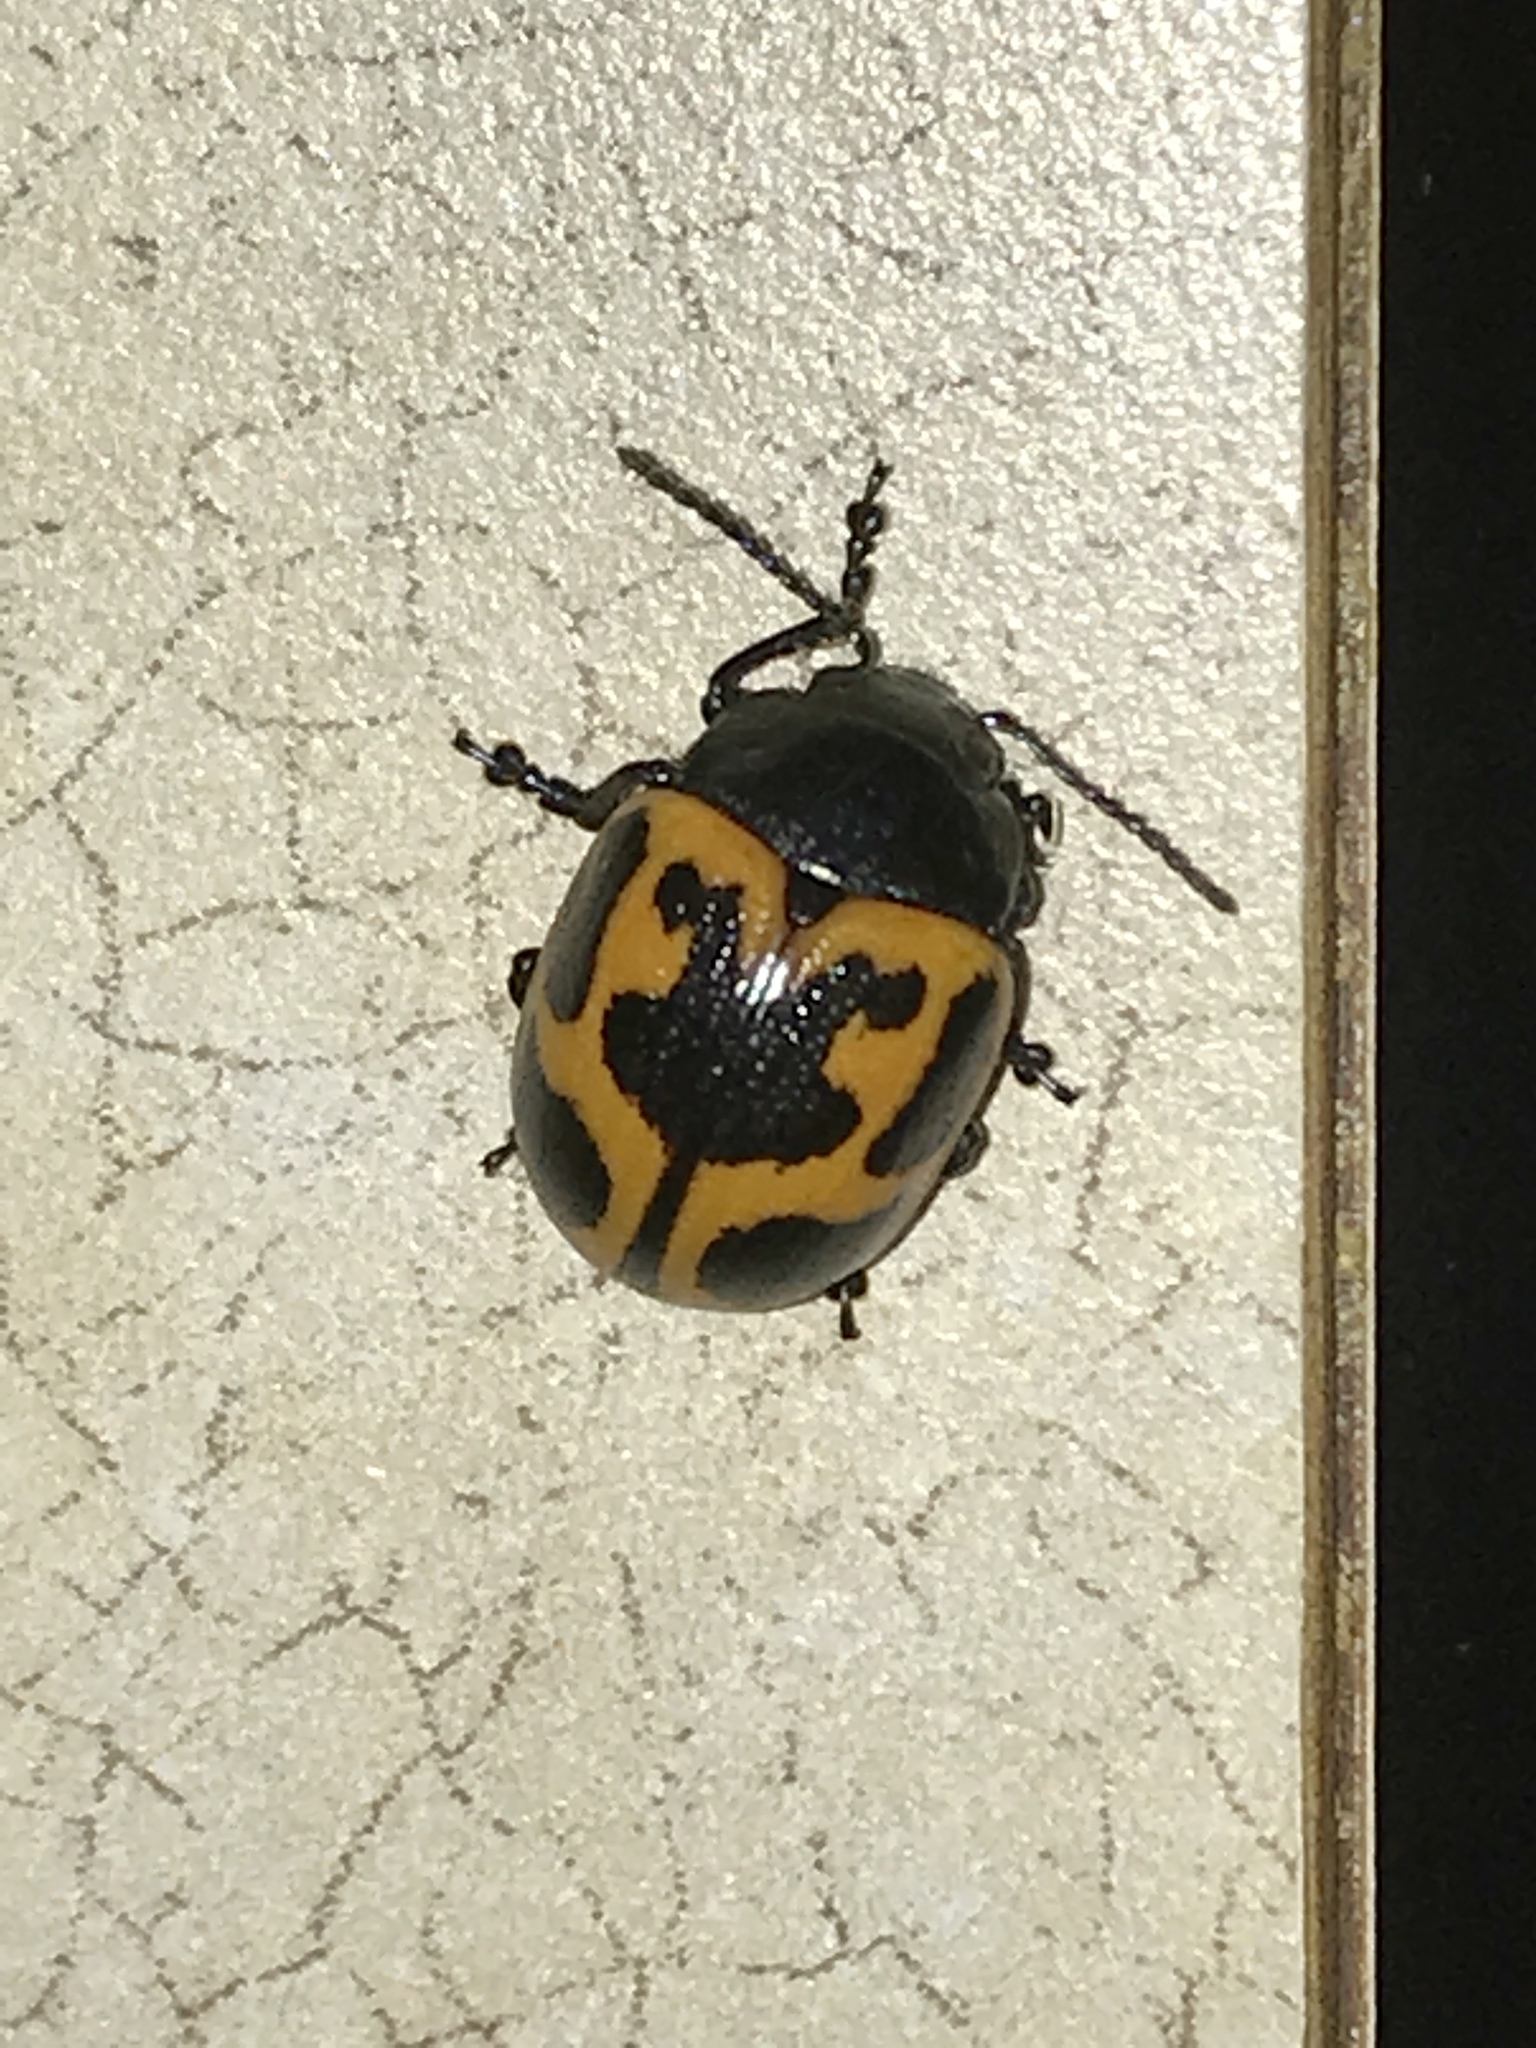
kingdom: Animalia
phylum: Arthropoda
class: Insecta
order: Coleoptera
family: Chrysomelidae
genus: Labidomera
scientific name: Labidomera clivicollis
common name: Swamp milkweed leaf beetle
